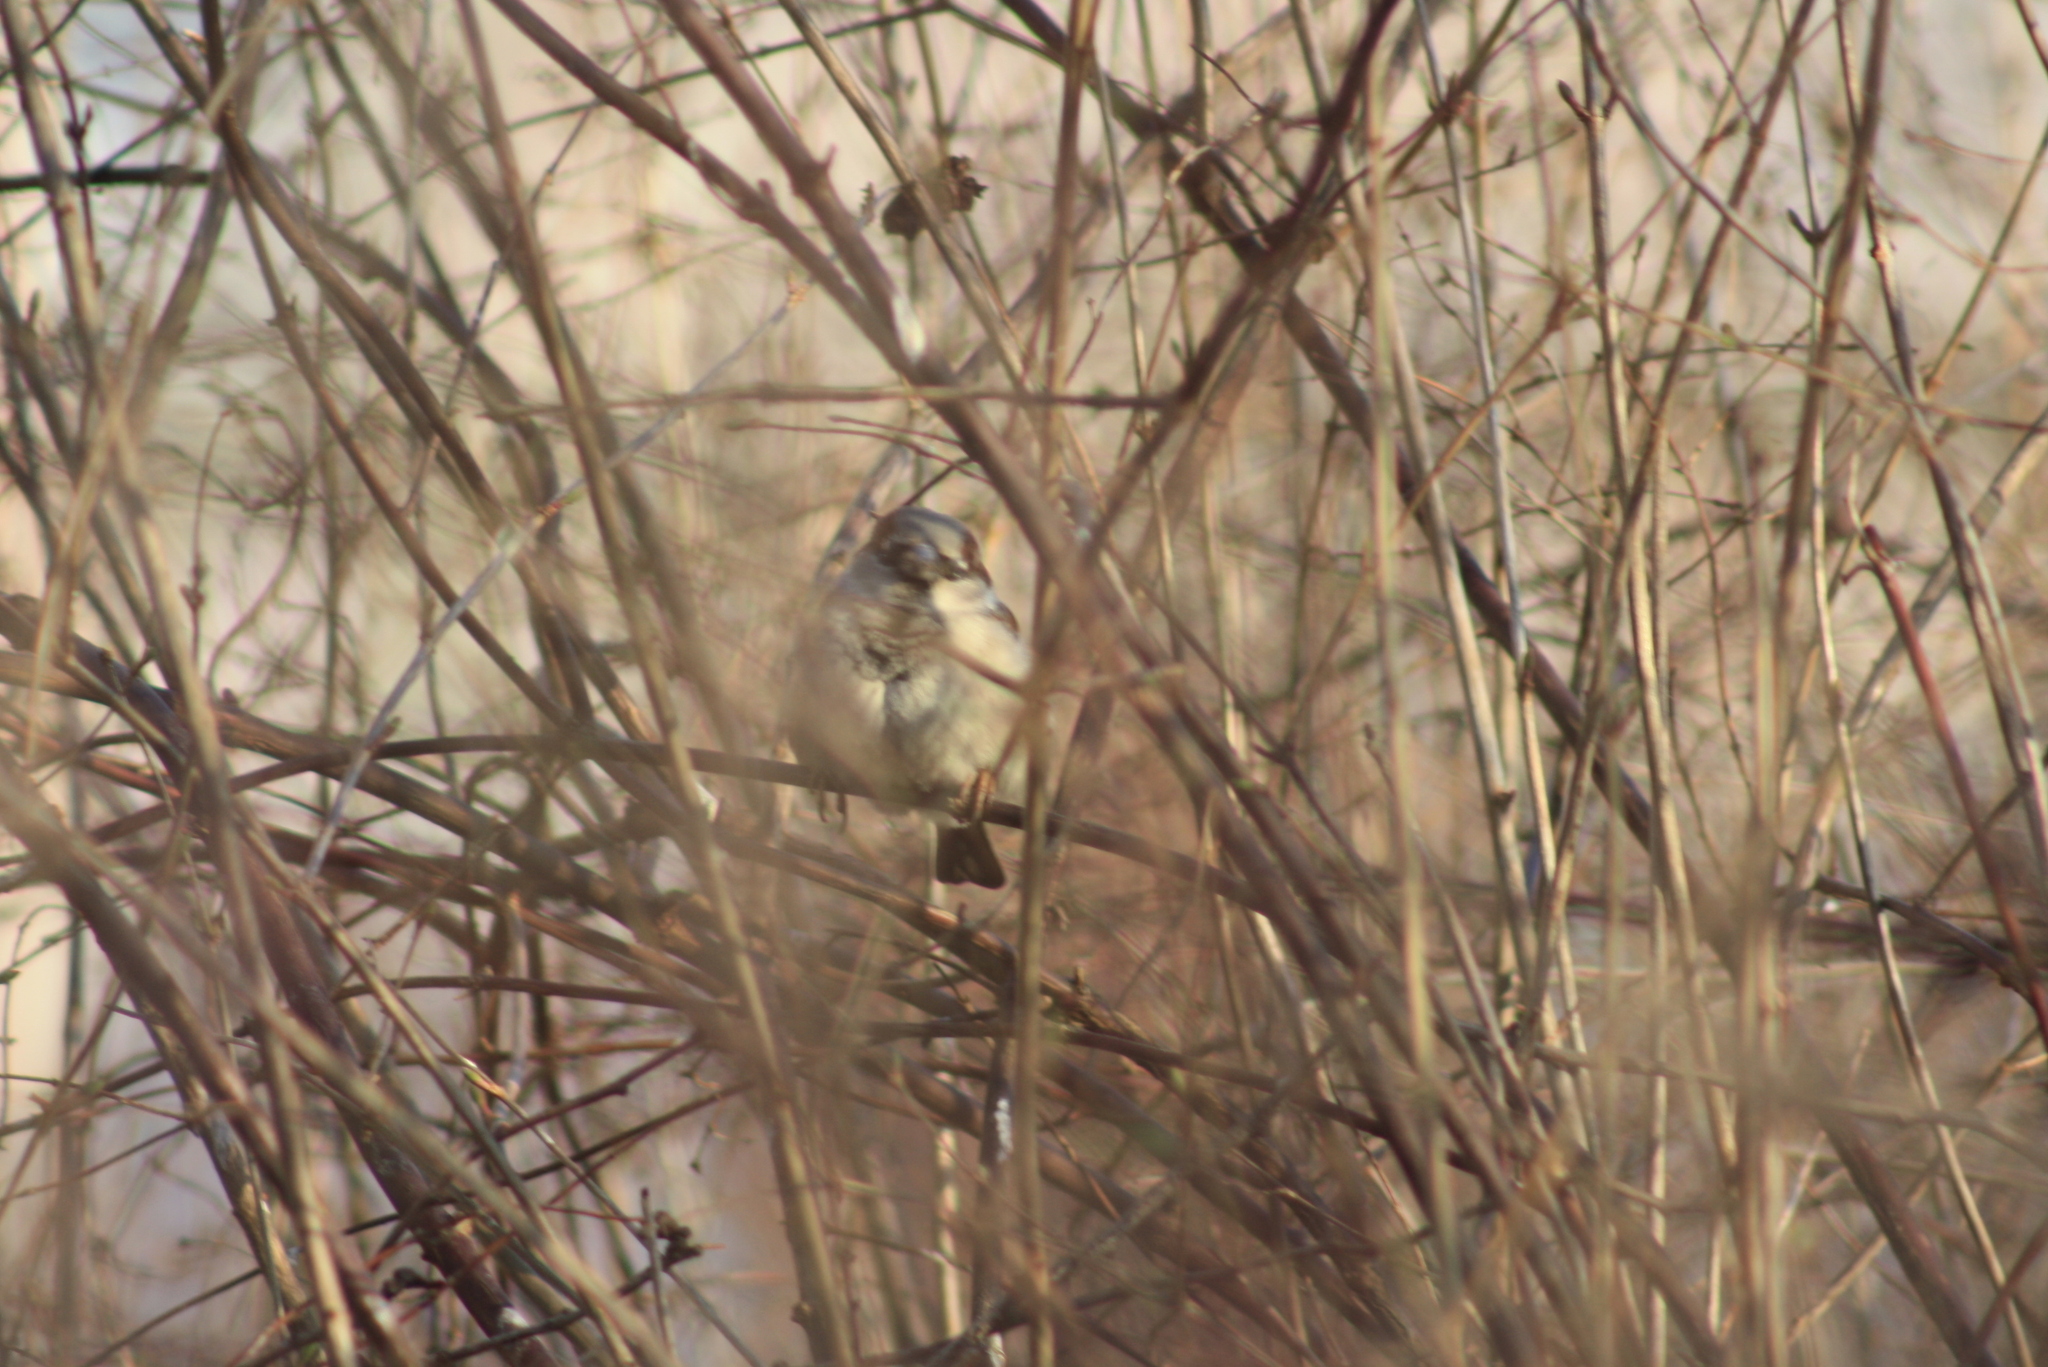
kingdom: Animalia
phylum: Chordata
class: Aves
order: Passeriformes
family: Passeridae
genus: Passer
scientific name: Passer domesticus
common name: House sparrow
